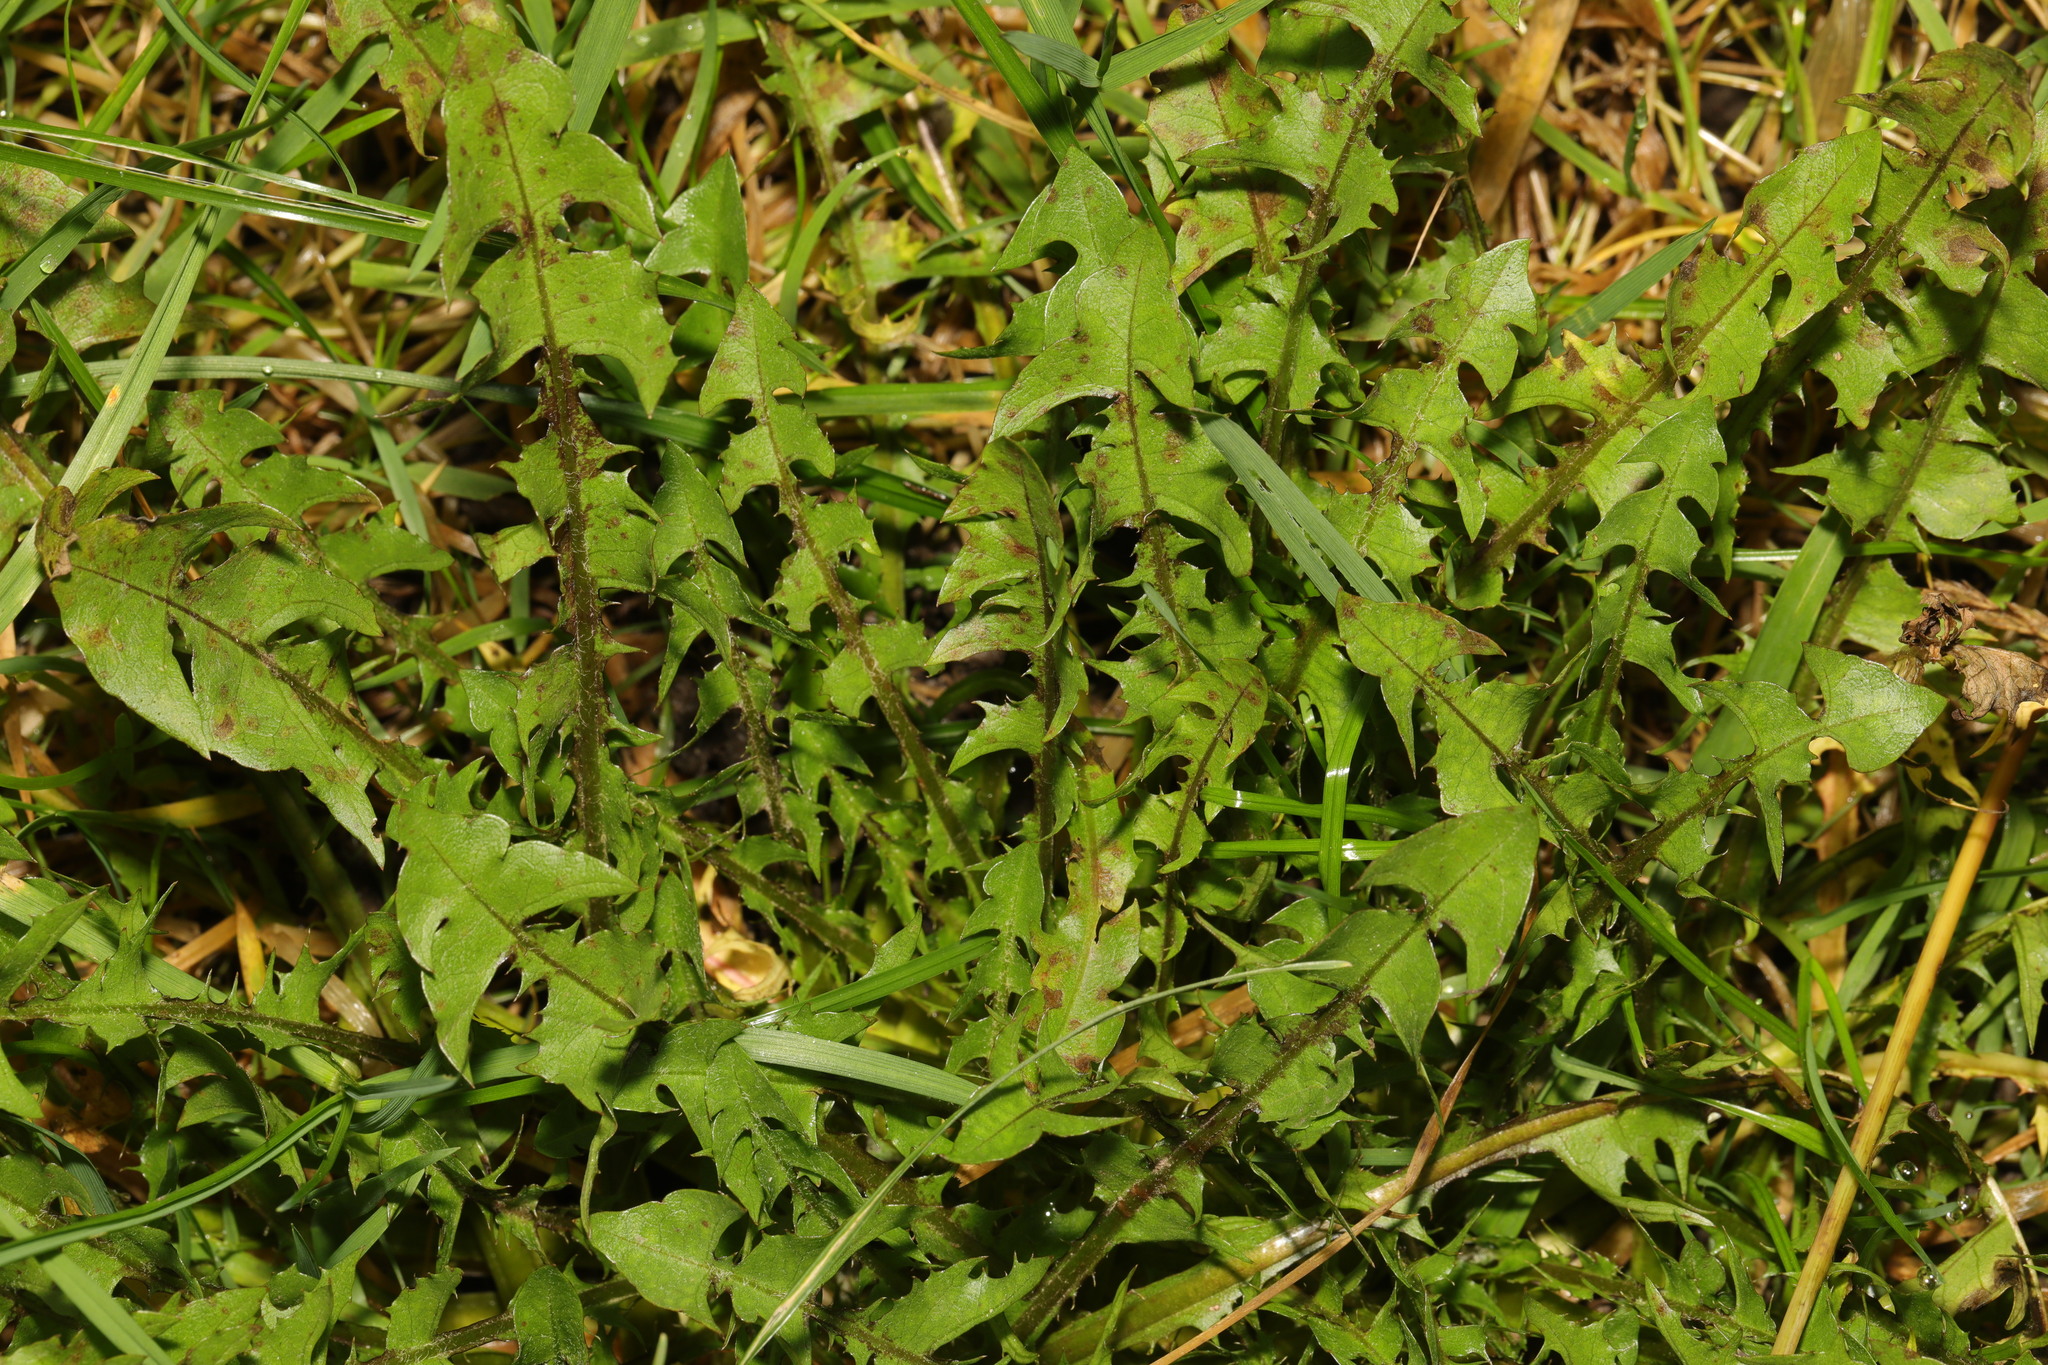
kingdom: Plantae
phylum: Tracheophyta
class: Magnoliopsida
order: Asterales
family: Asteraceae
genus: Taraxacum
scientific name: Taraxacum officinale
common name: Common dandelion
